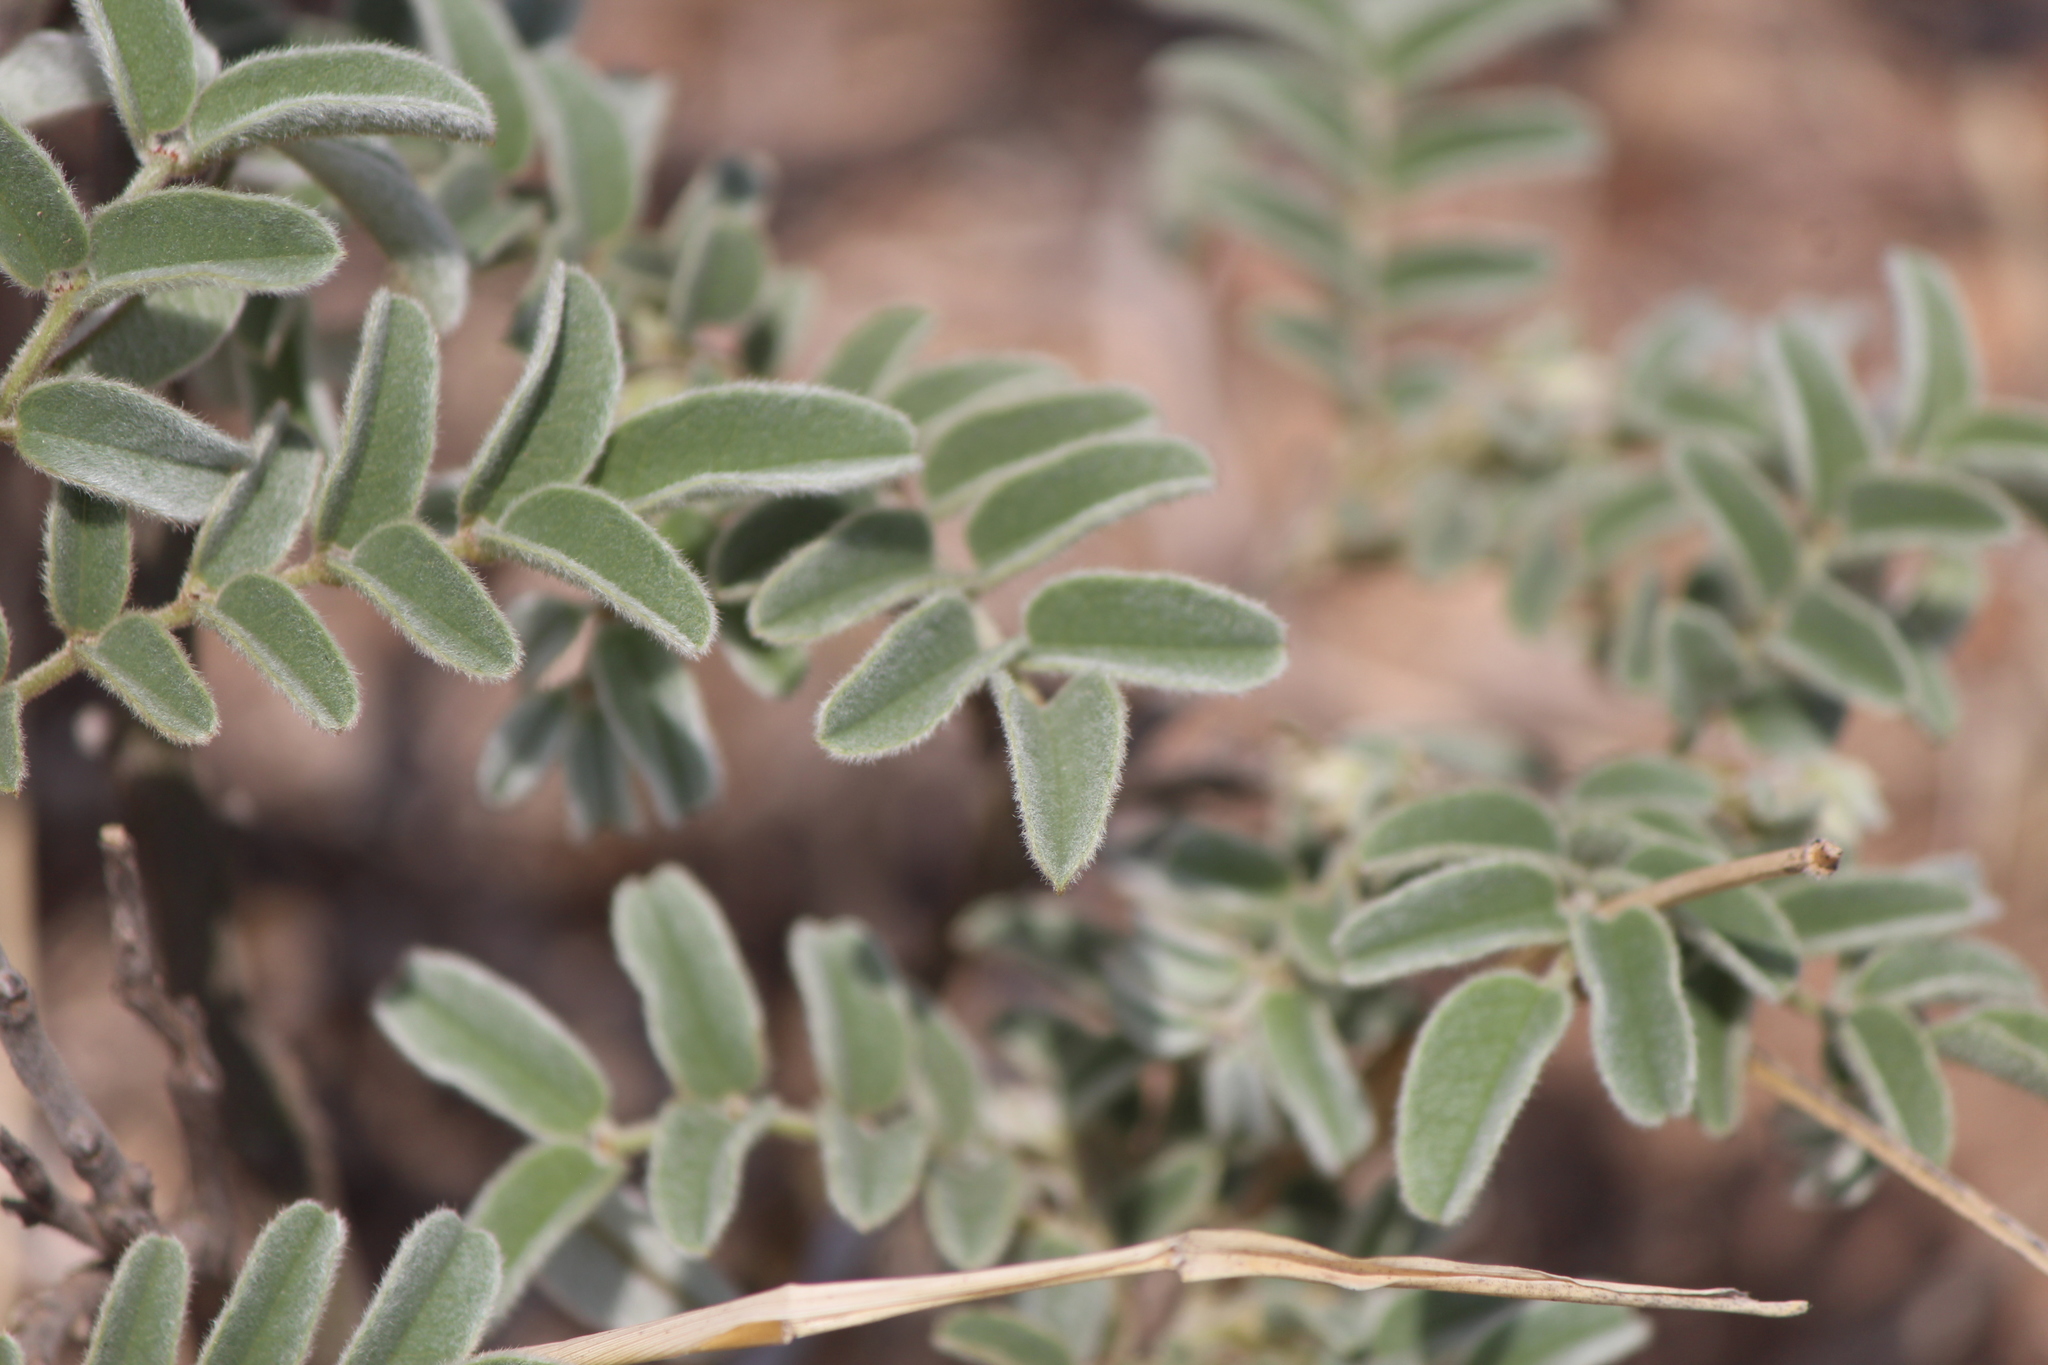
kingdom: Plantae
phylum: Tracheophyta
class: Magnoliopsida
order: Fabales
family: Fabaceae
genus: Brongniartia
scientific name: Brongniartia lupinoides
